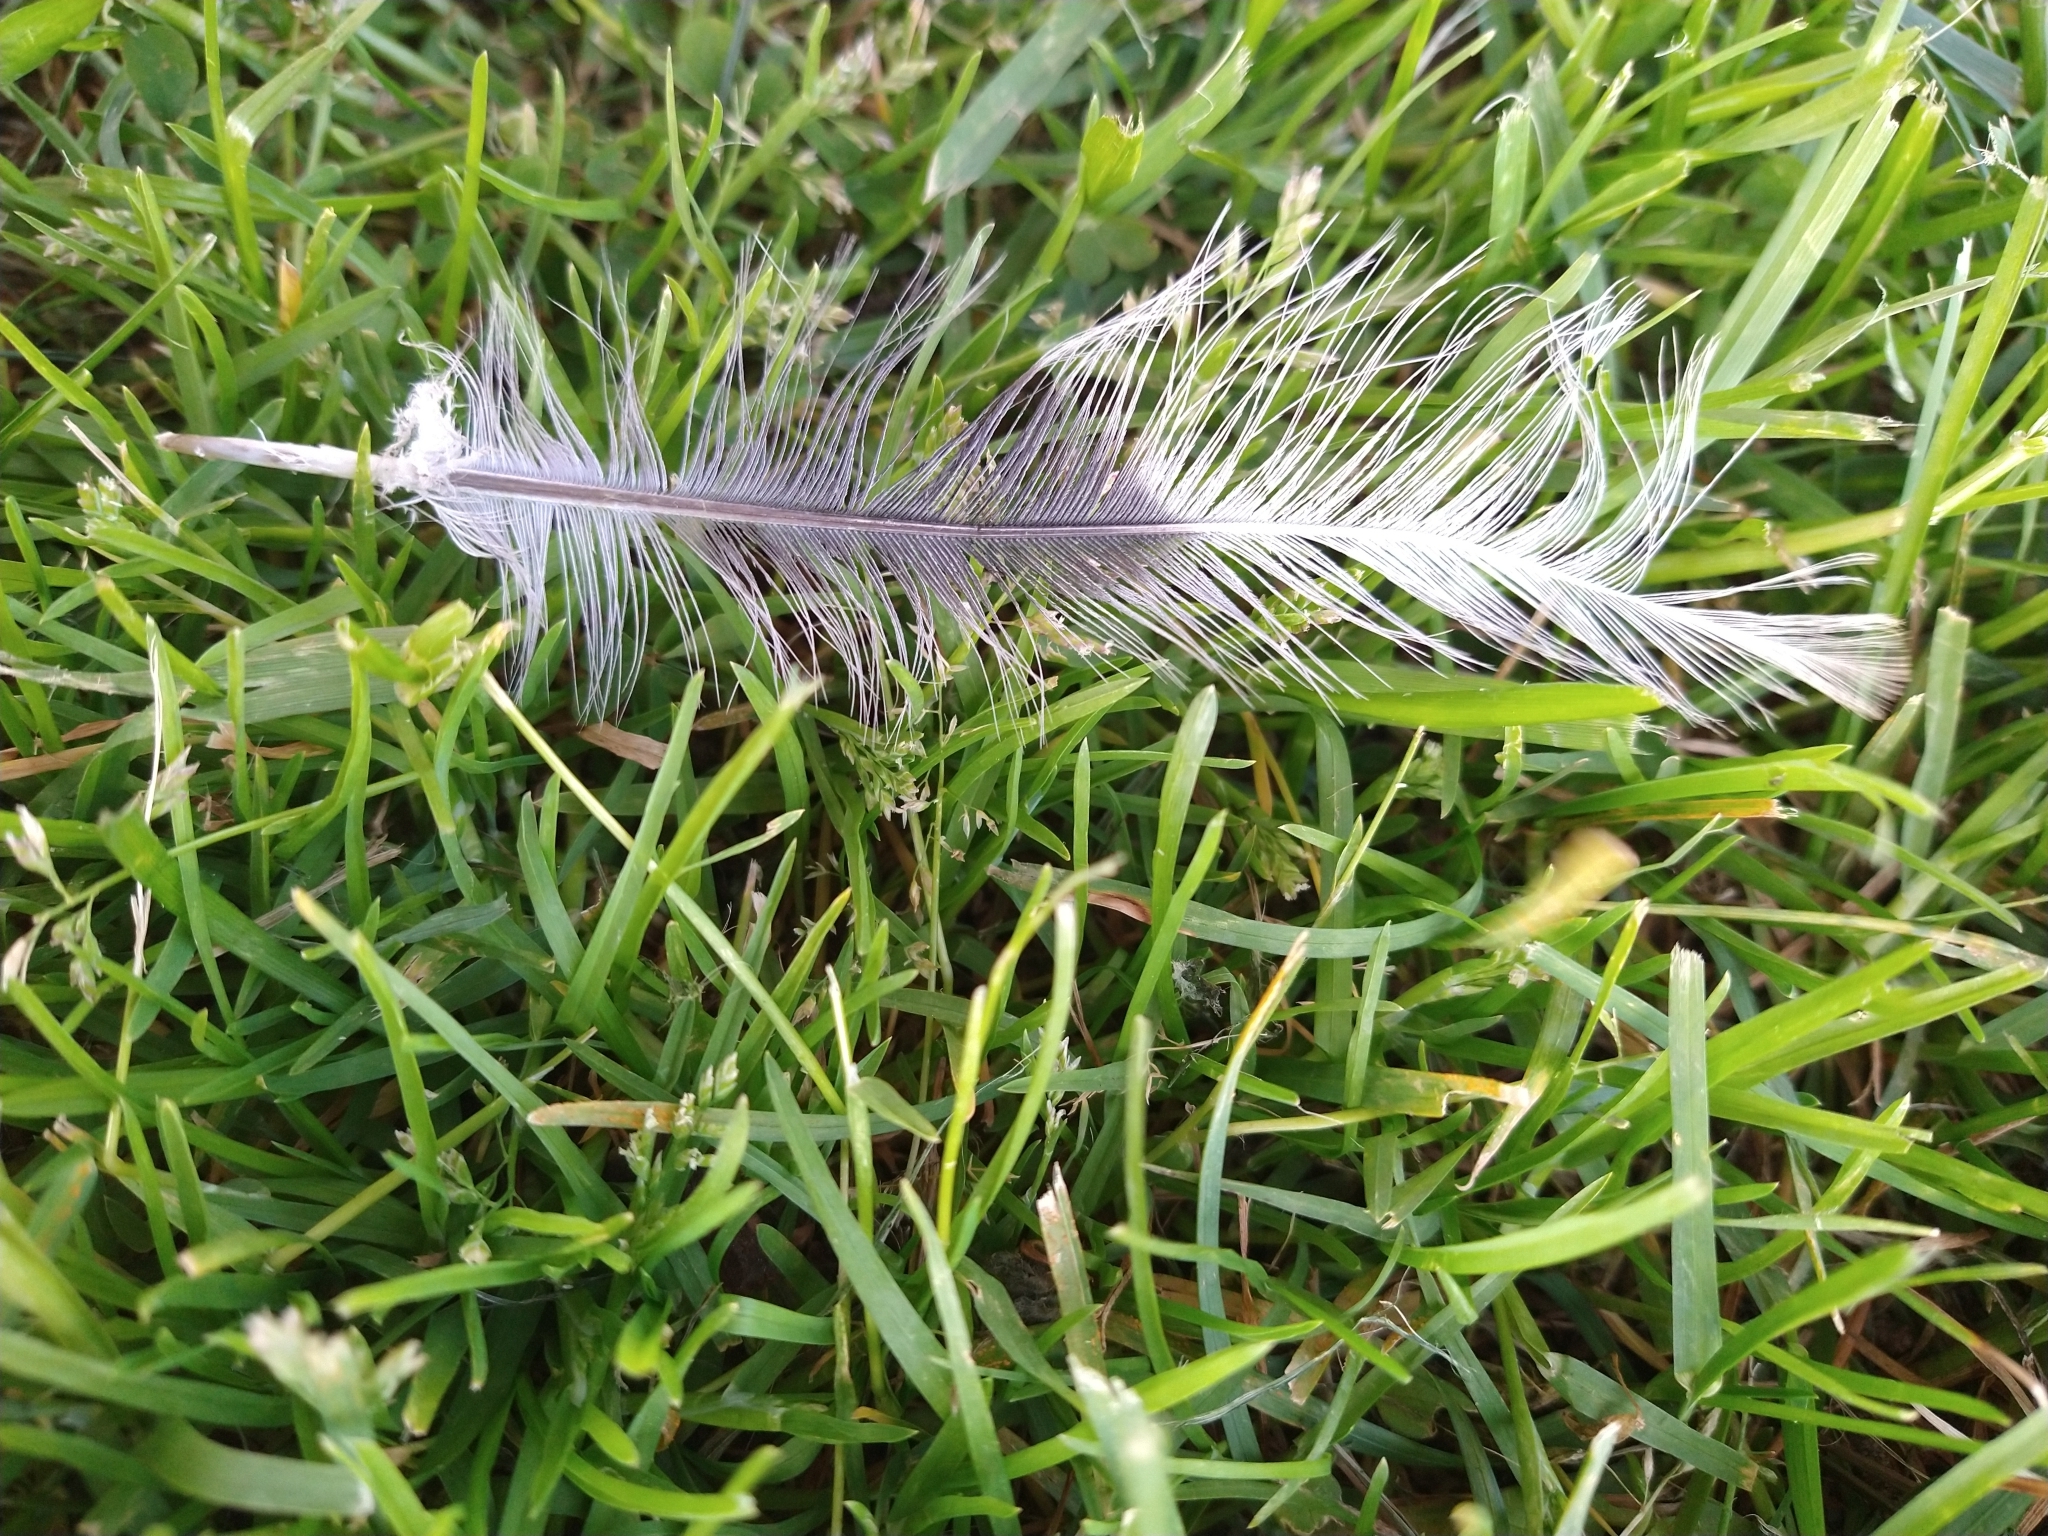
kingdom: Animalia
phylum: Chordata
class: Aves
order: Columbiformes
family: Columbidae
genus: Streptopelia
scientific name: Streptopelia decaocto
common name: Eurasian collared dove
